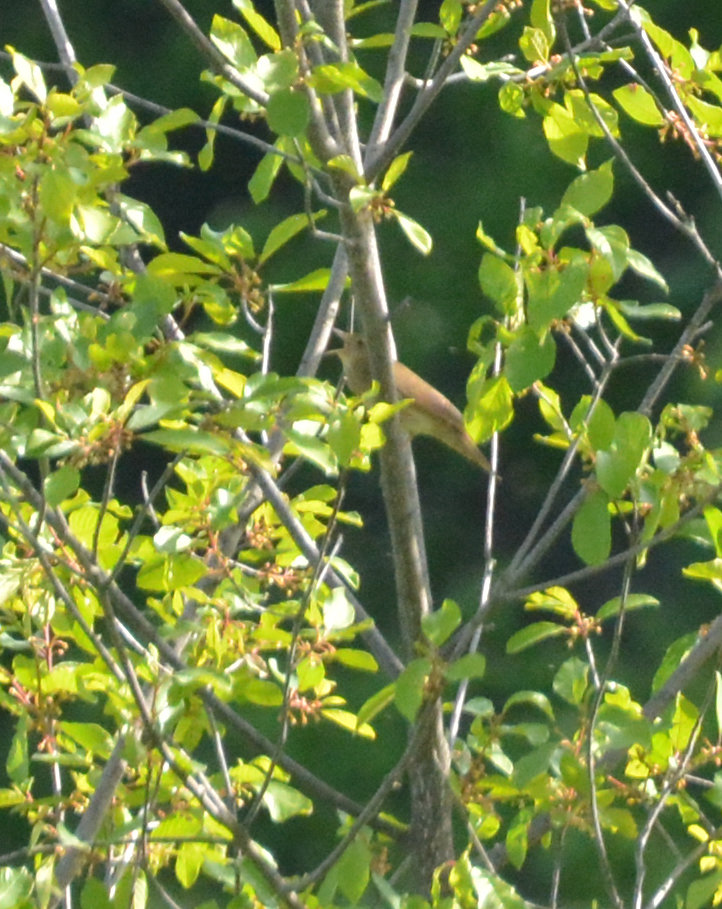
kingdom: Animalia
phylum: Chordata
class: Aves
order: Passeriformes
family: Locustellidae
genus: Locustella
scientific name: Locustella fluviatilis
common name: River warbler
